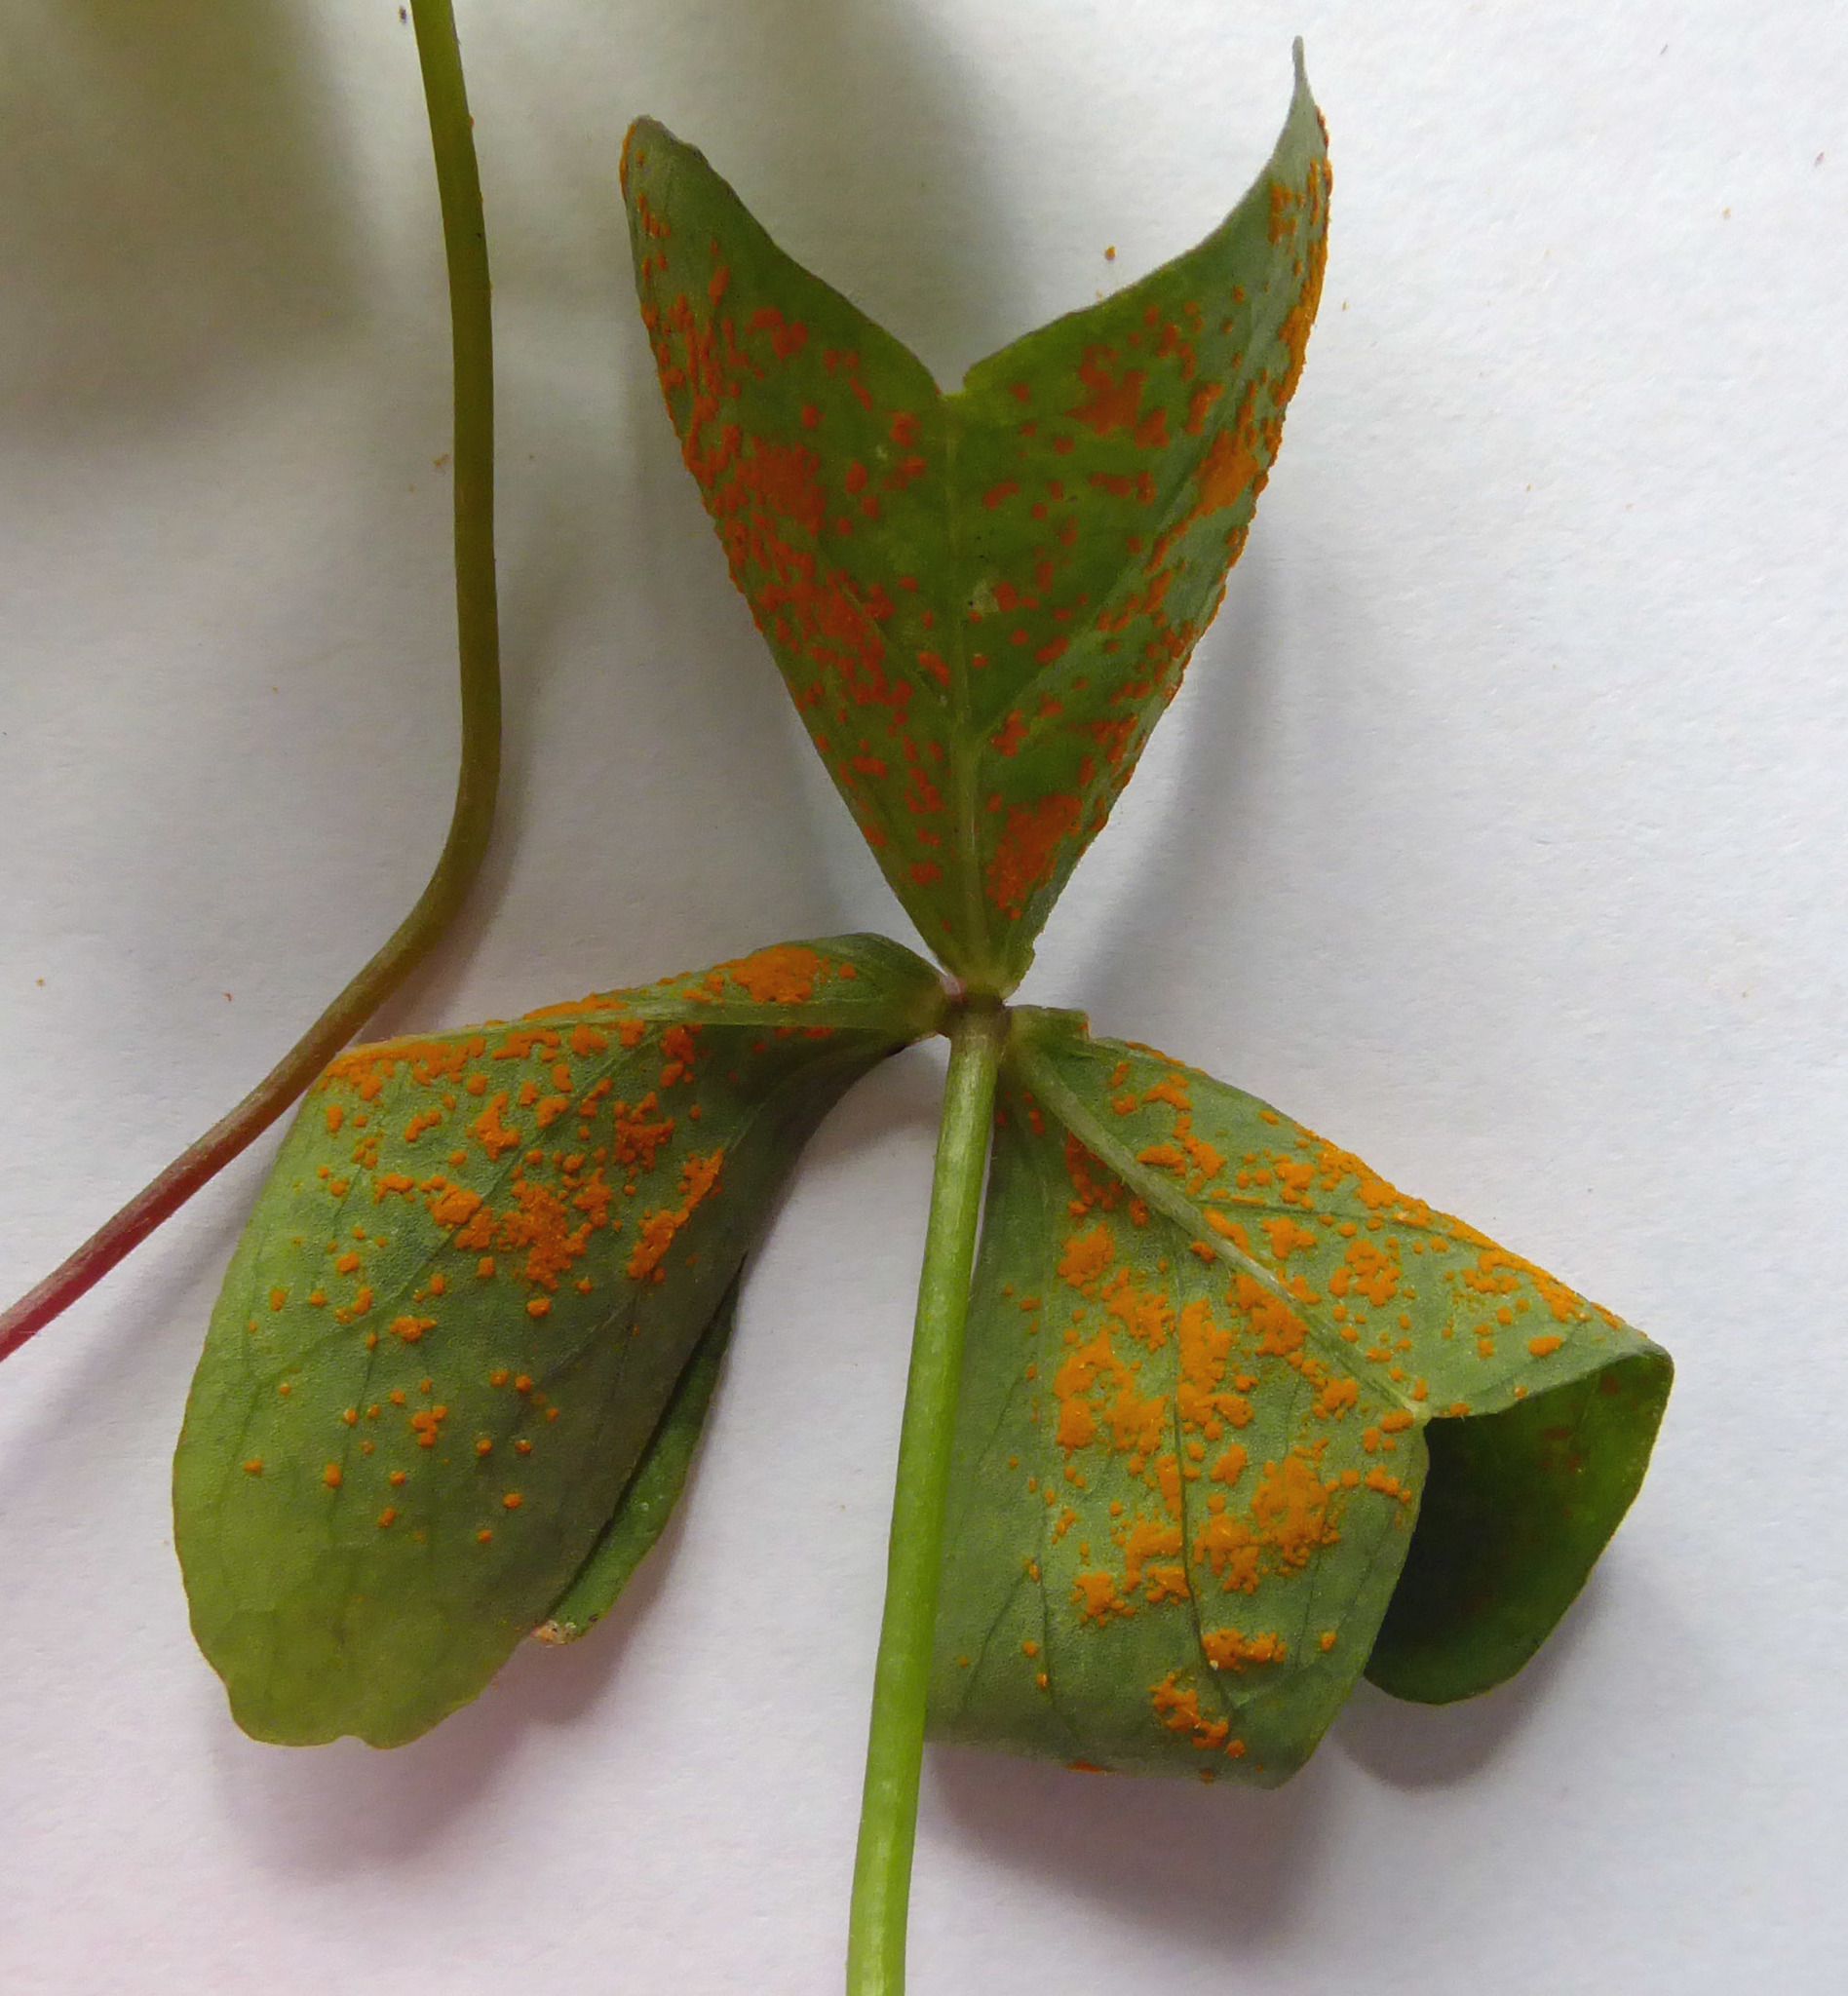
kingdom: Fungi
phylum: Basidiomycota
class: Pucciniomycetes
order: Pucciniales
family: Pucciniaceae
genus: Puccinia
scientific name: Puccinia oxalidis
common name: Oxalis rust
